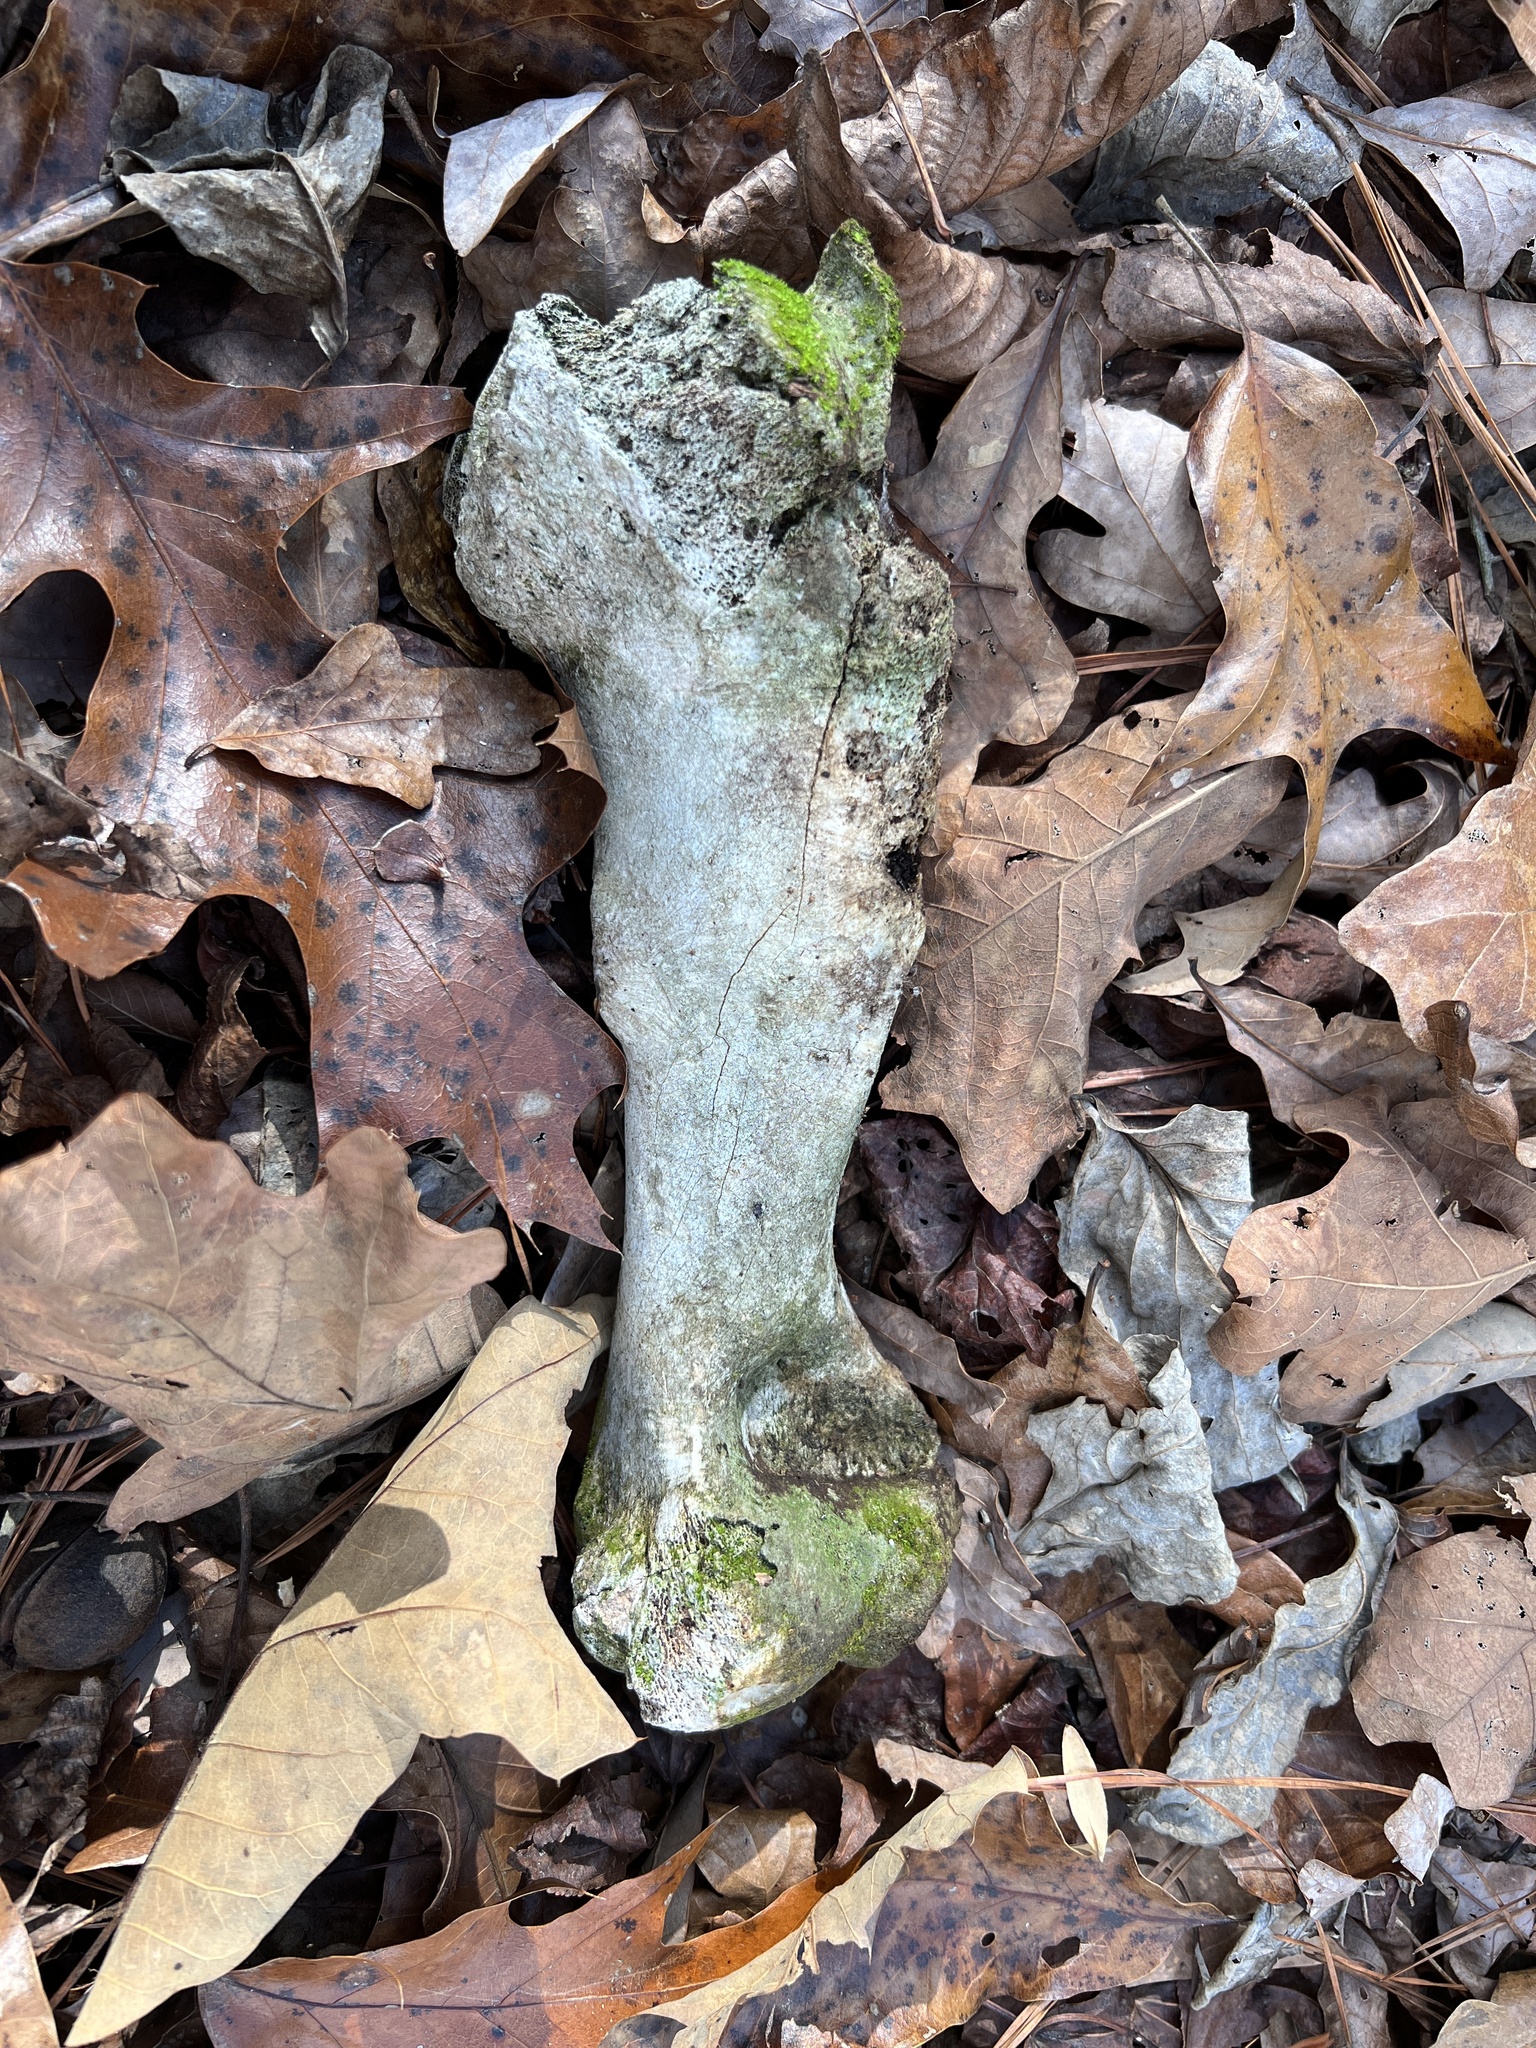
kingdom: Animalia
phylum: Chordata
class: Mammalia
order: Artiodactyla
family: Suidae
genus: Sus
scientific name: Sus scrofa
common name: Wild boar
